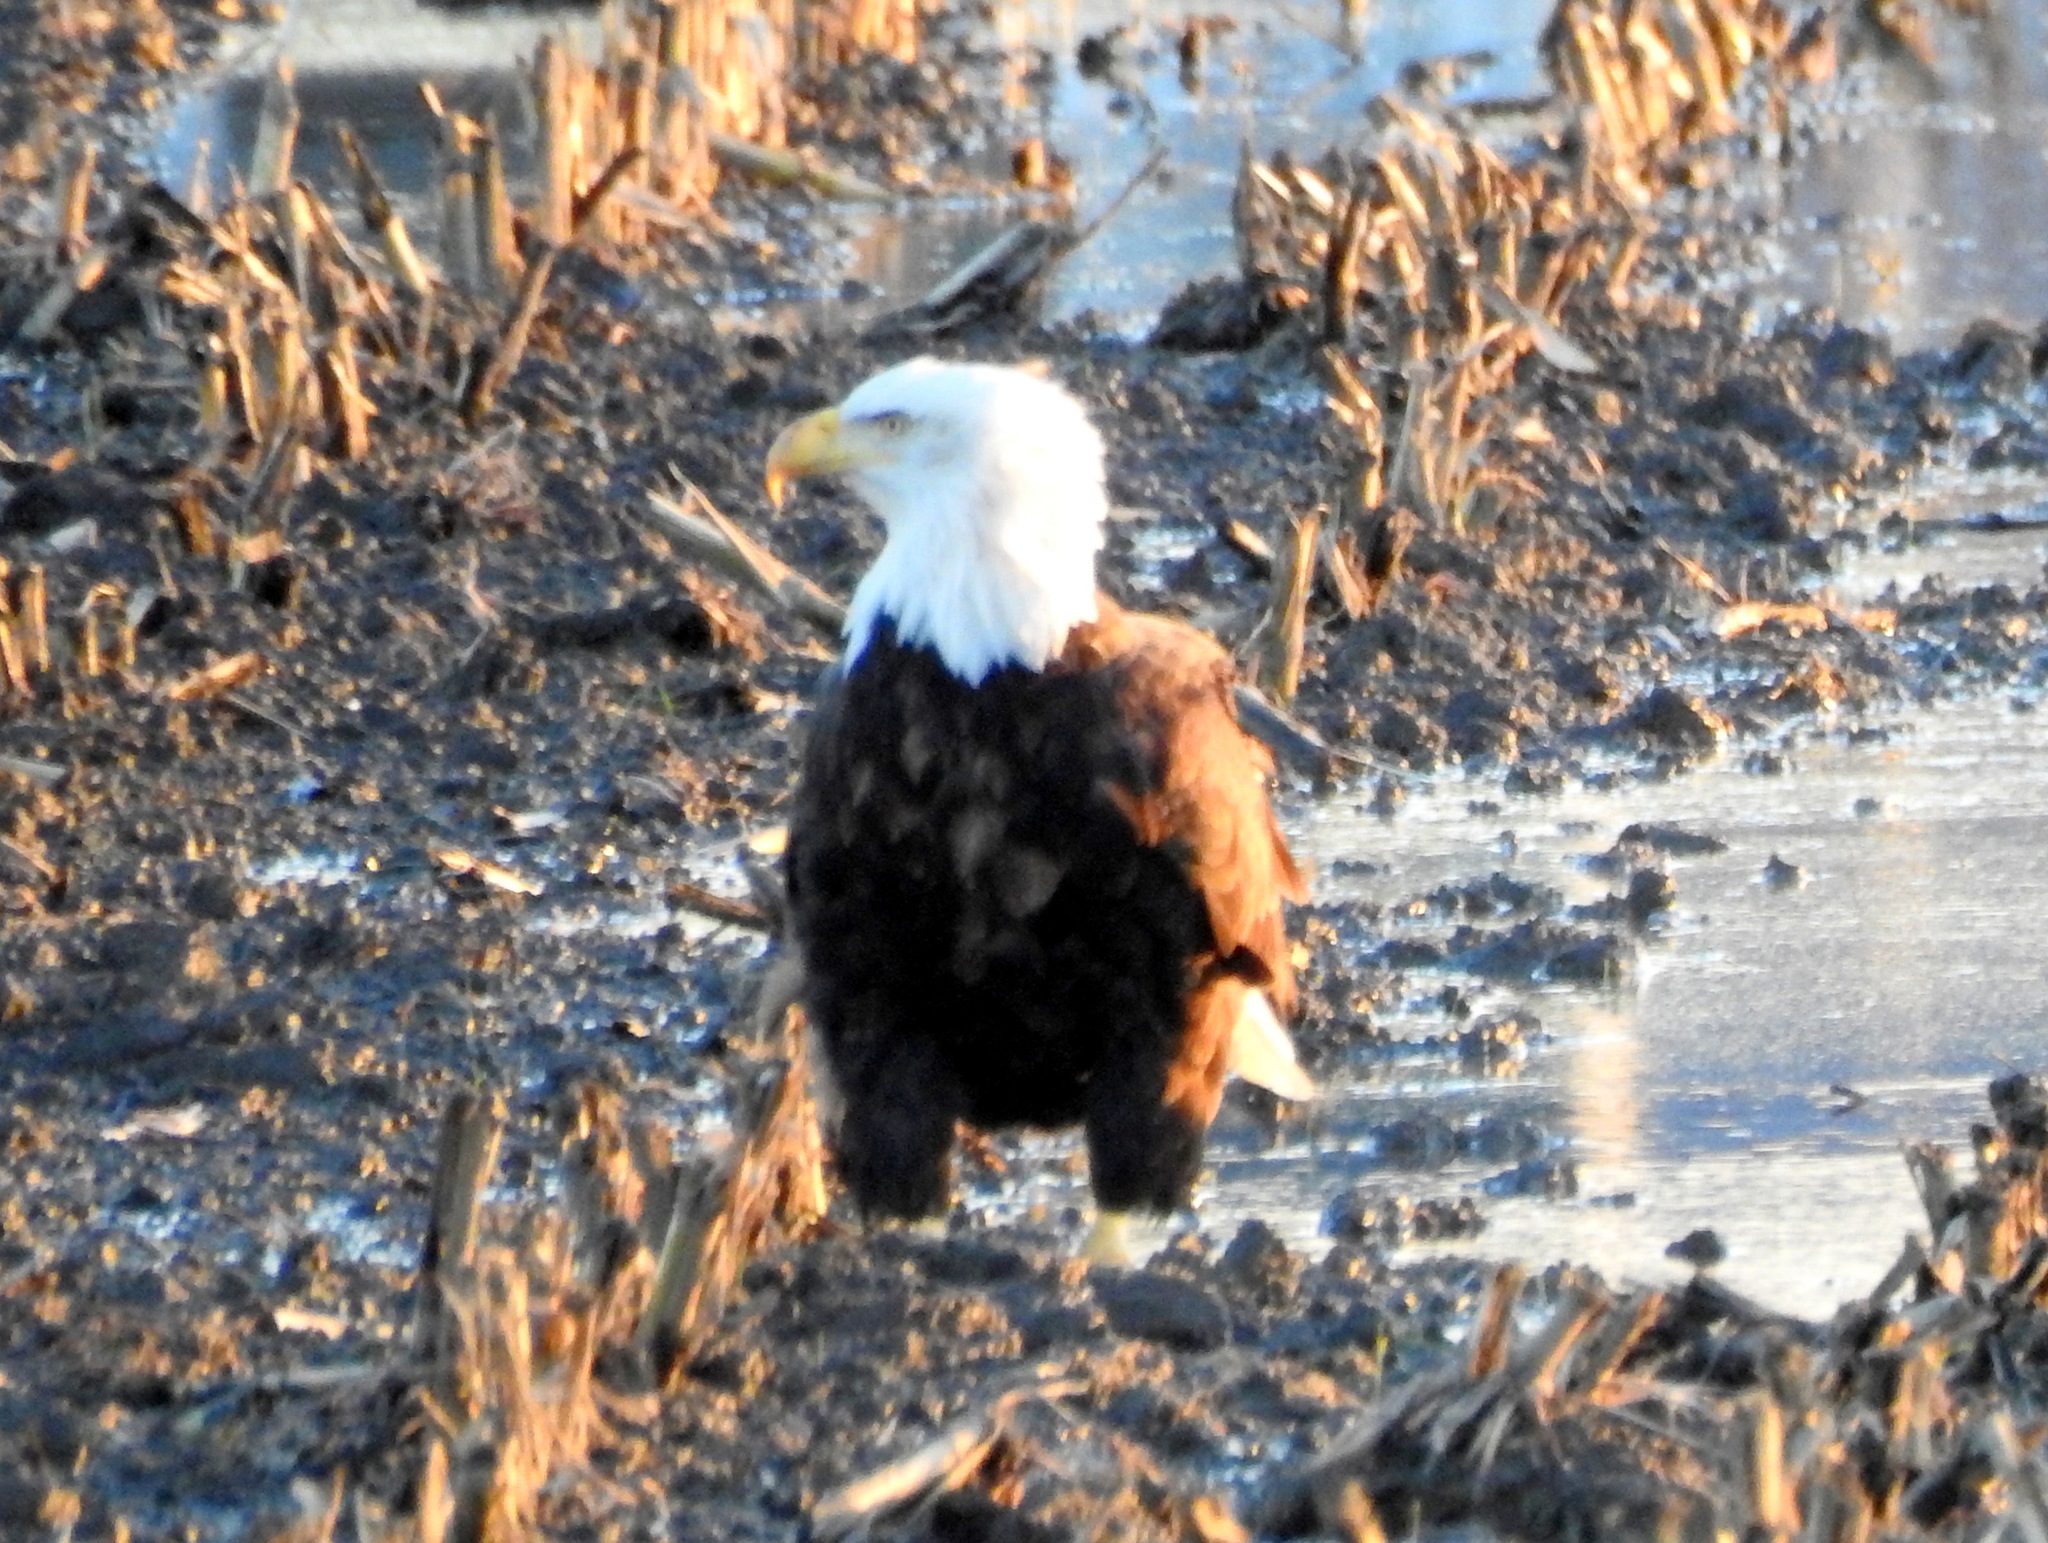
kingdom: Animalia
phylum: Chordata
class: Aves
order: Accipitriformes
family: Accipitridae
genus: Haliaeetus
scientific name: Haliaeetus leucocephalus
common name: Bald eagle
